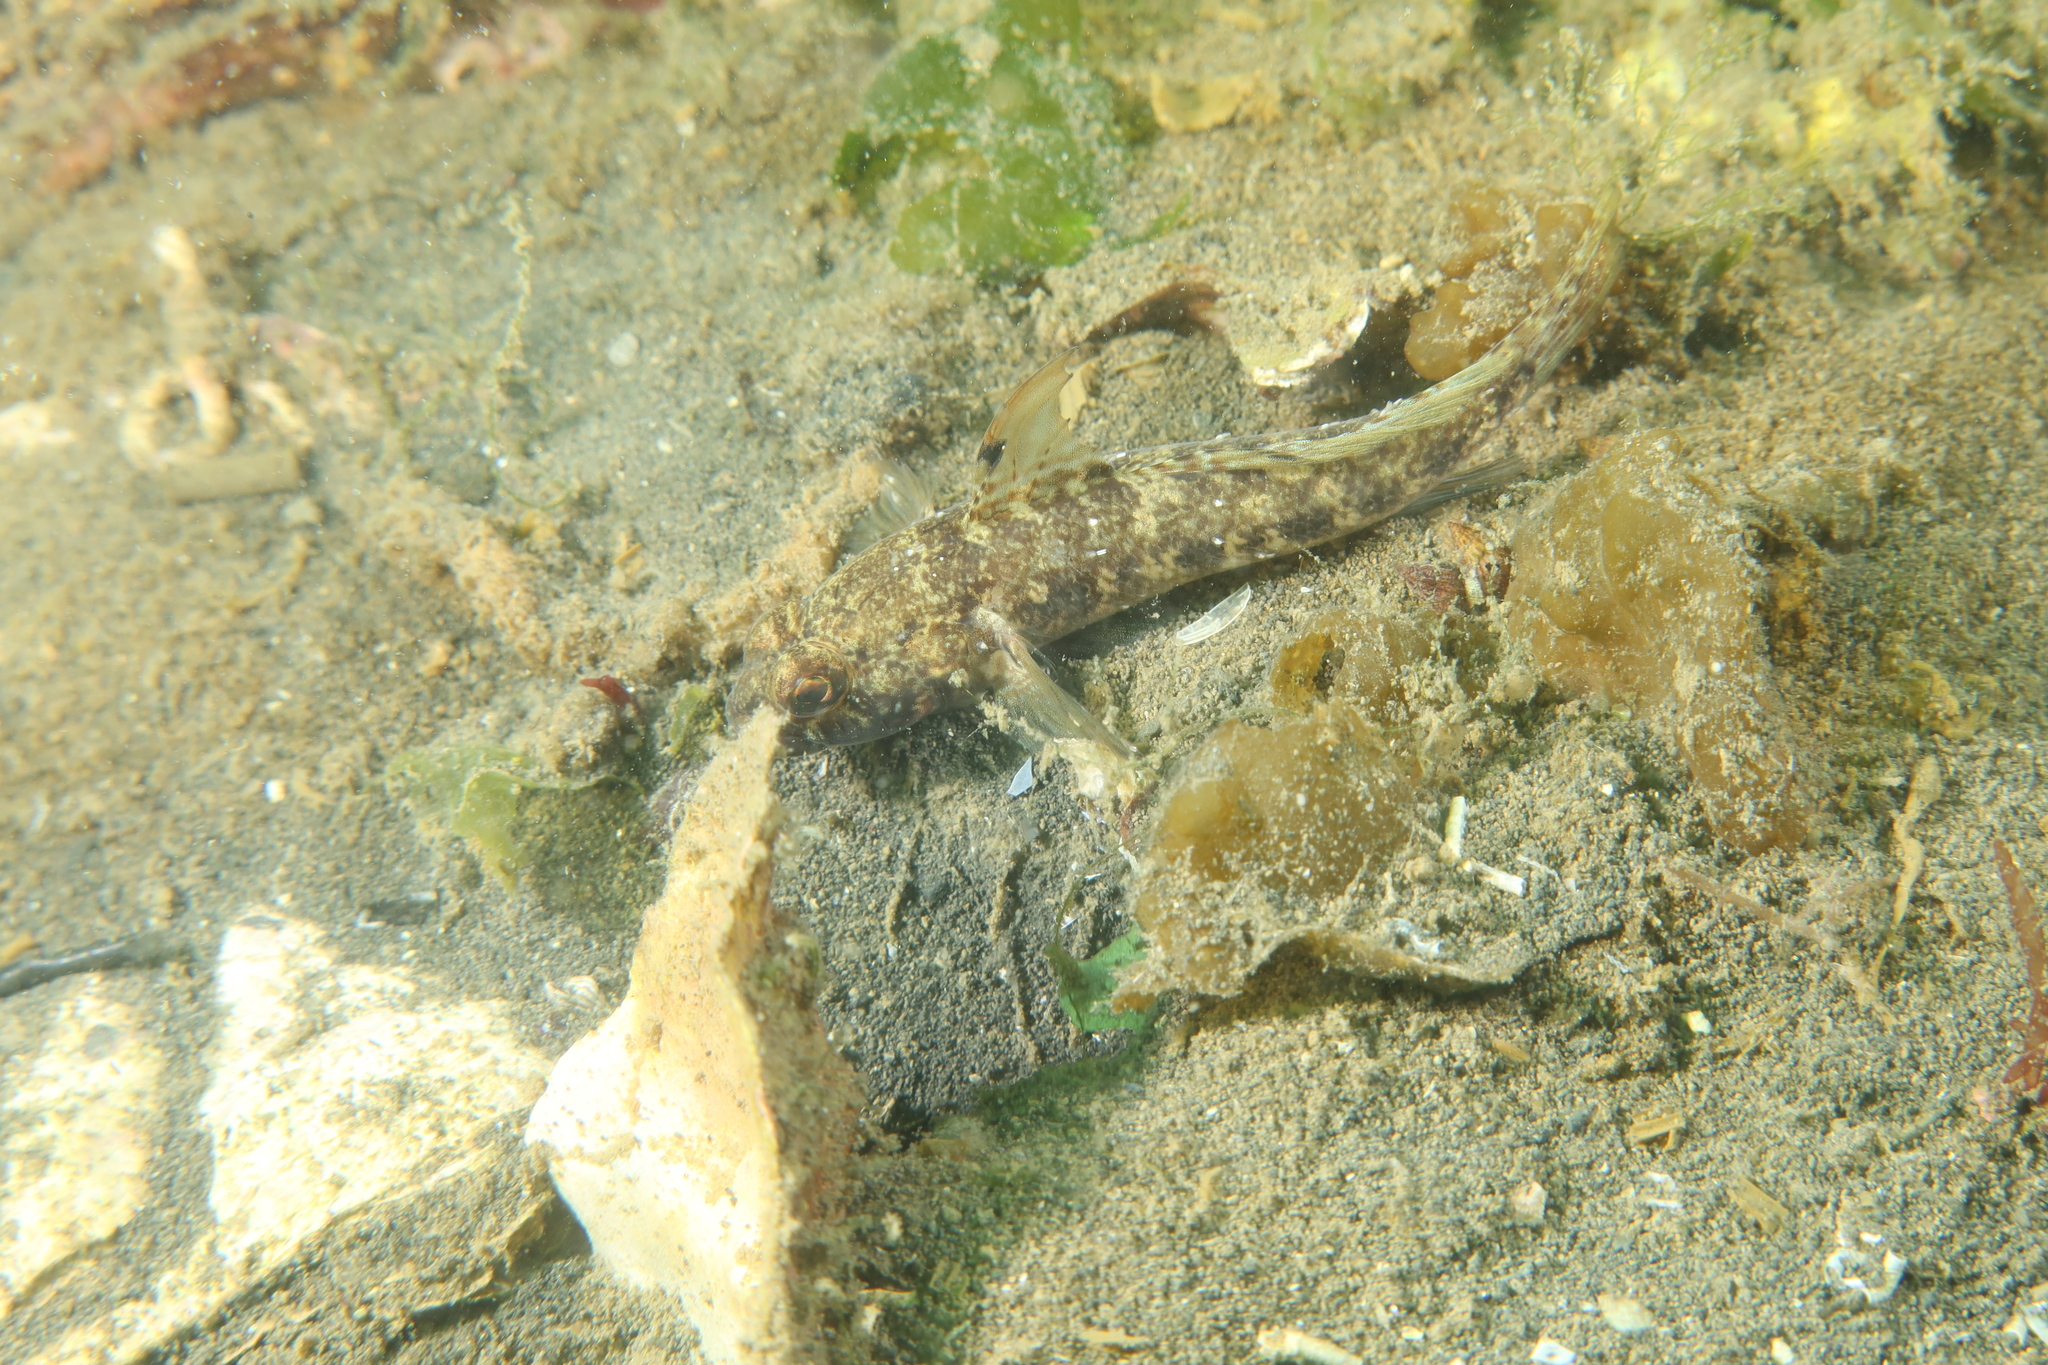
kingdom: Animalia
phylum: Chordata
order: Perciformes
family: Gobiidae
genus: Gobius
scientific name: Gobius niger
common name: Black goby
